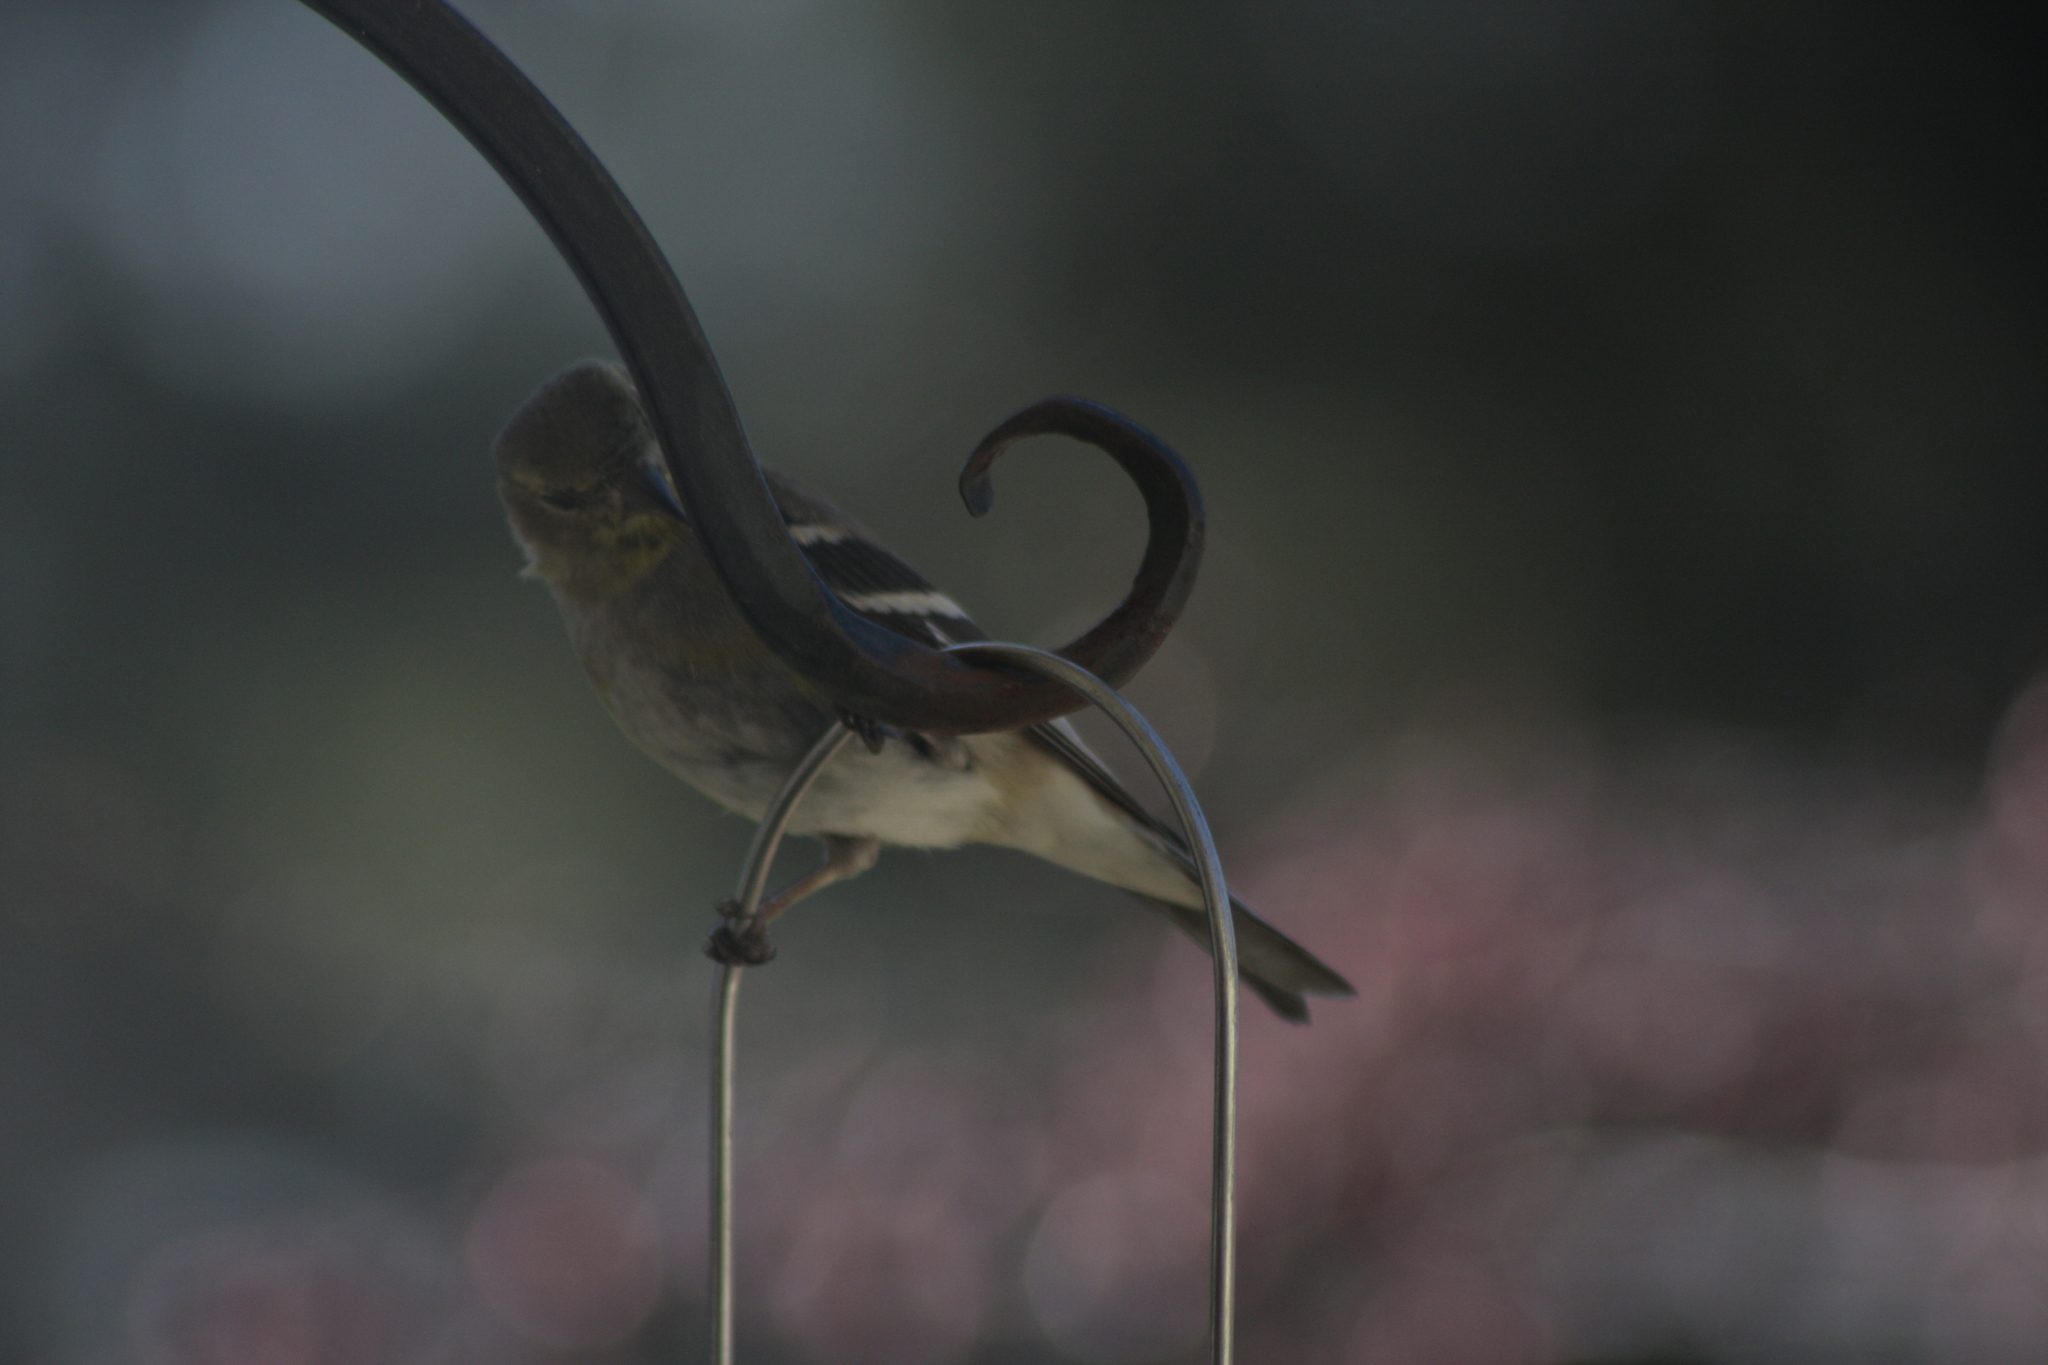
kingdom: Animalia
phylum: Chordata
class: Aves
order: Passeriformes
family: Fringillidae
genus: Spinus
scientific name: Spinus tristis
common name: American goldfinch
